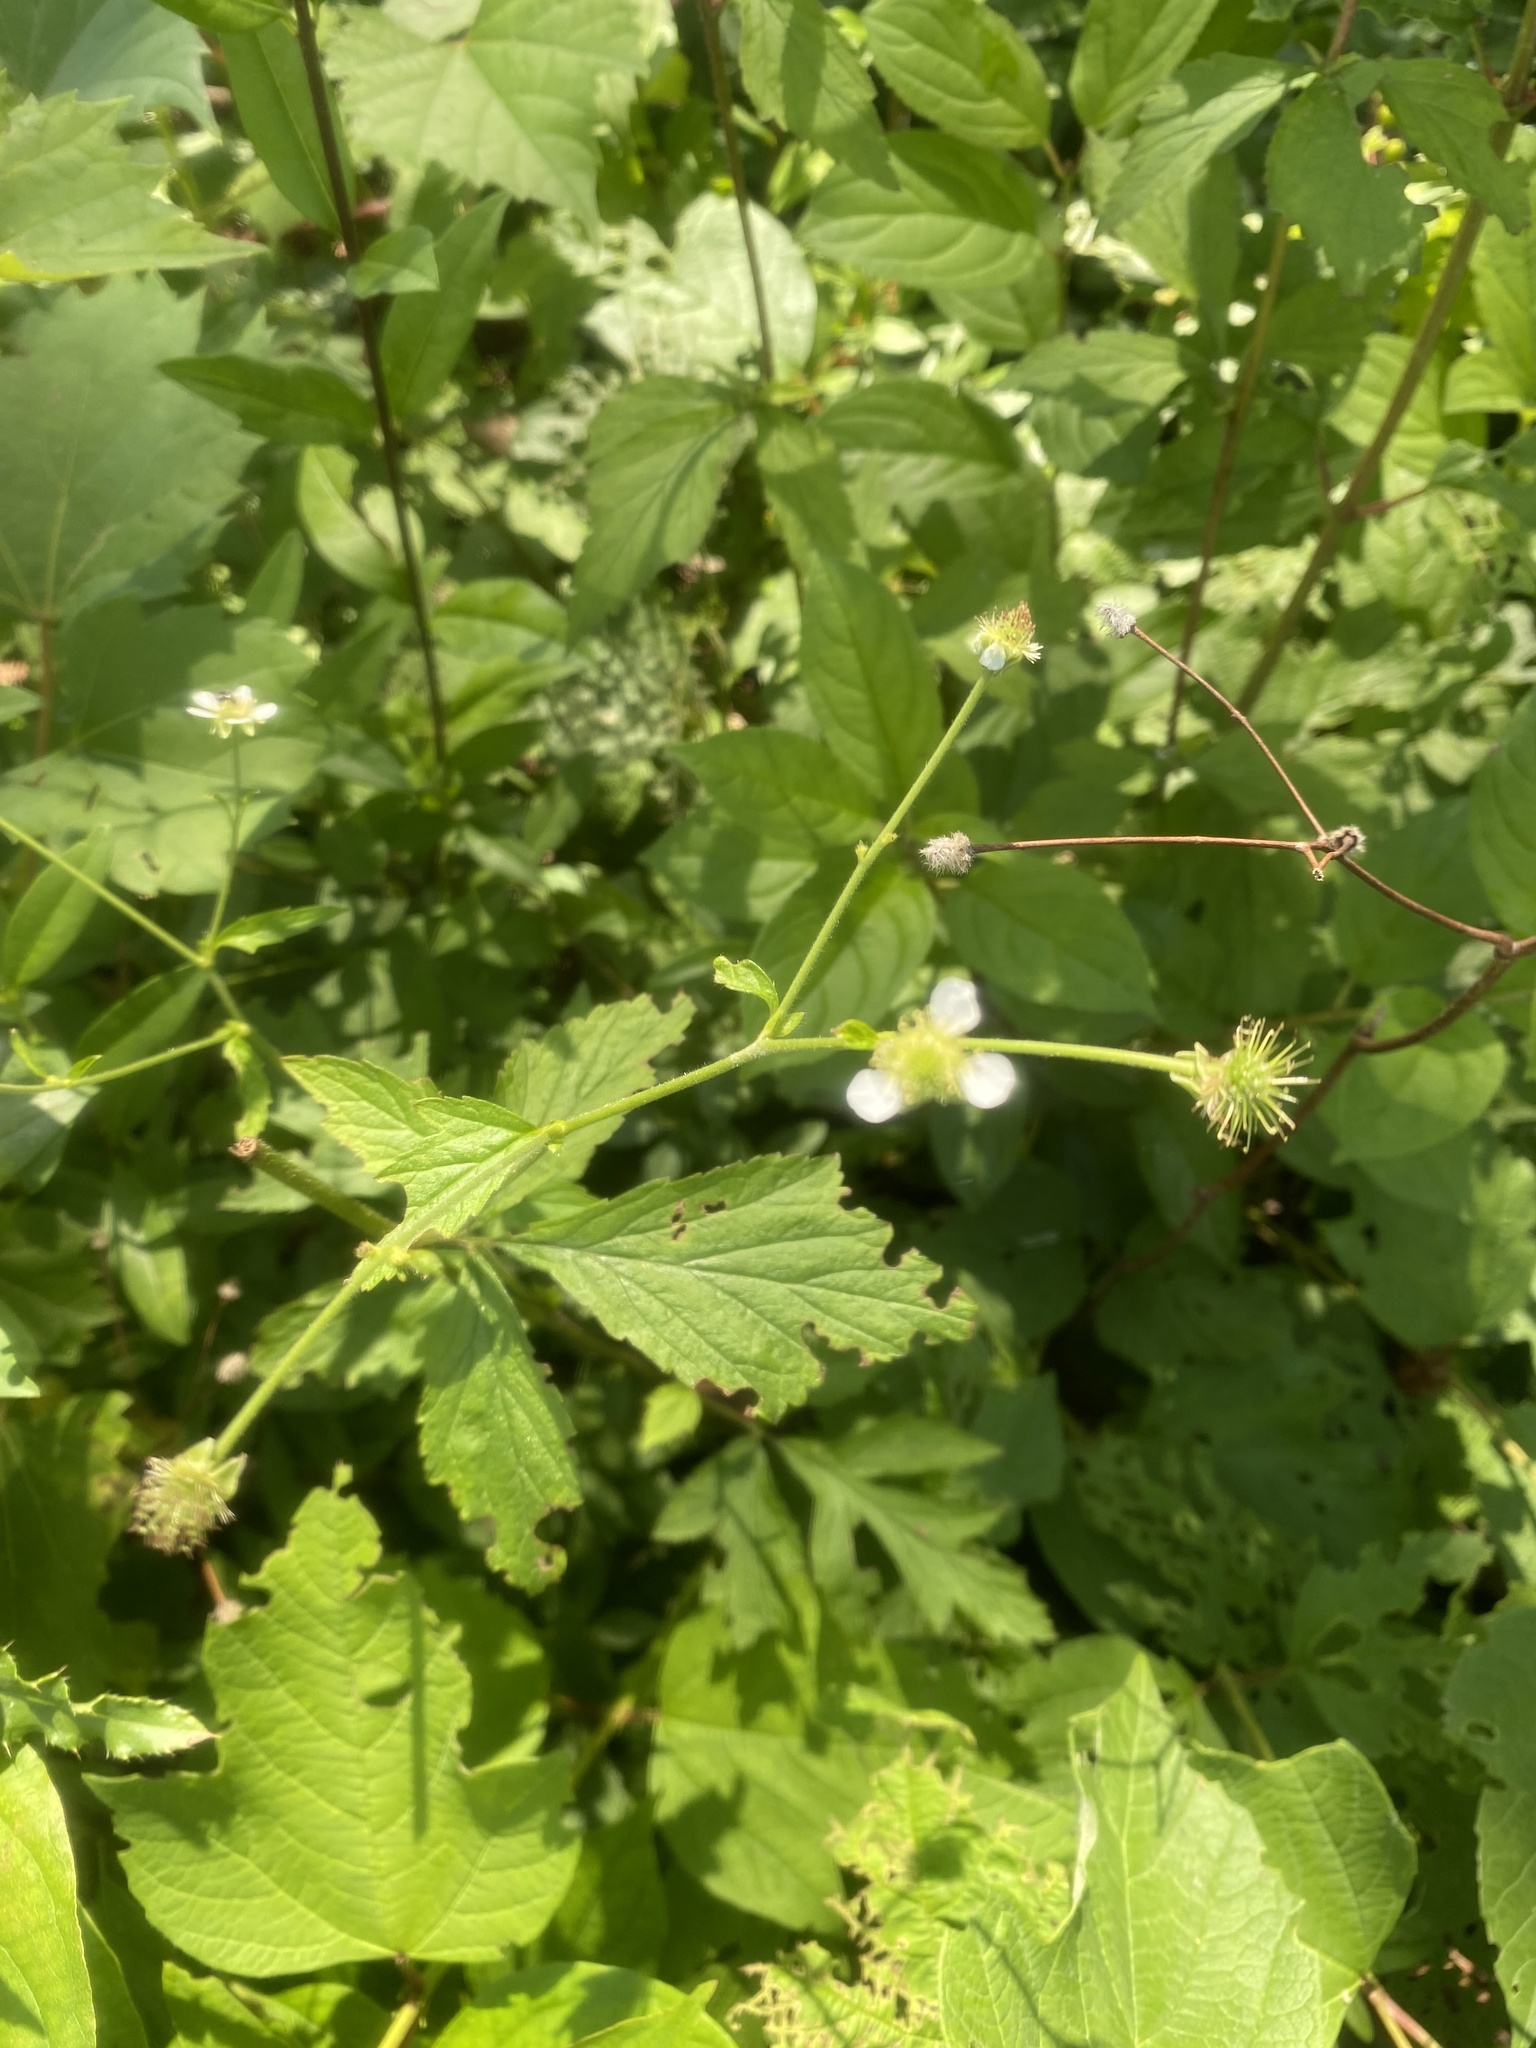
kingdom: Plantae
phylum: Tracheophyta
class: Magnoliopsida
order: Rosales
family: Rosaceae
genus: Geum
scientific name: Geum canadense
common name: White avens
